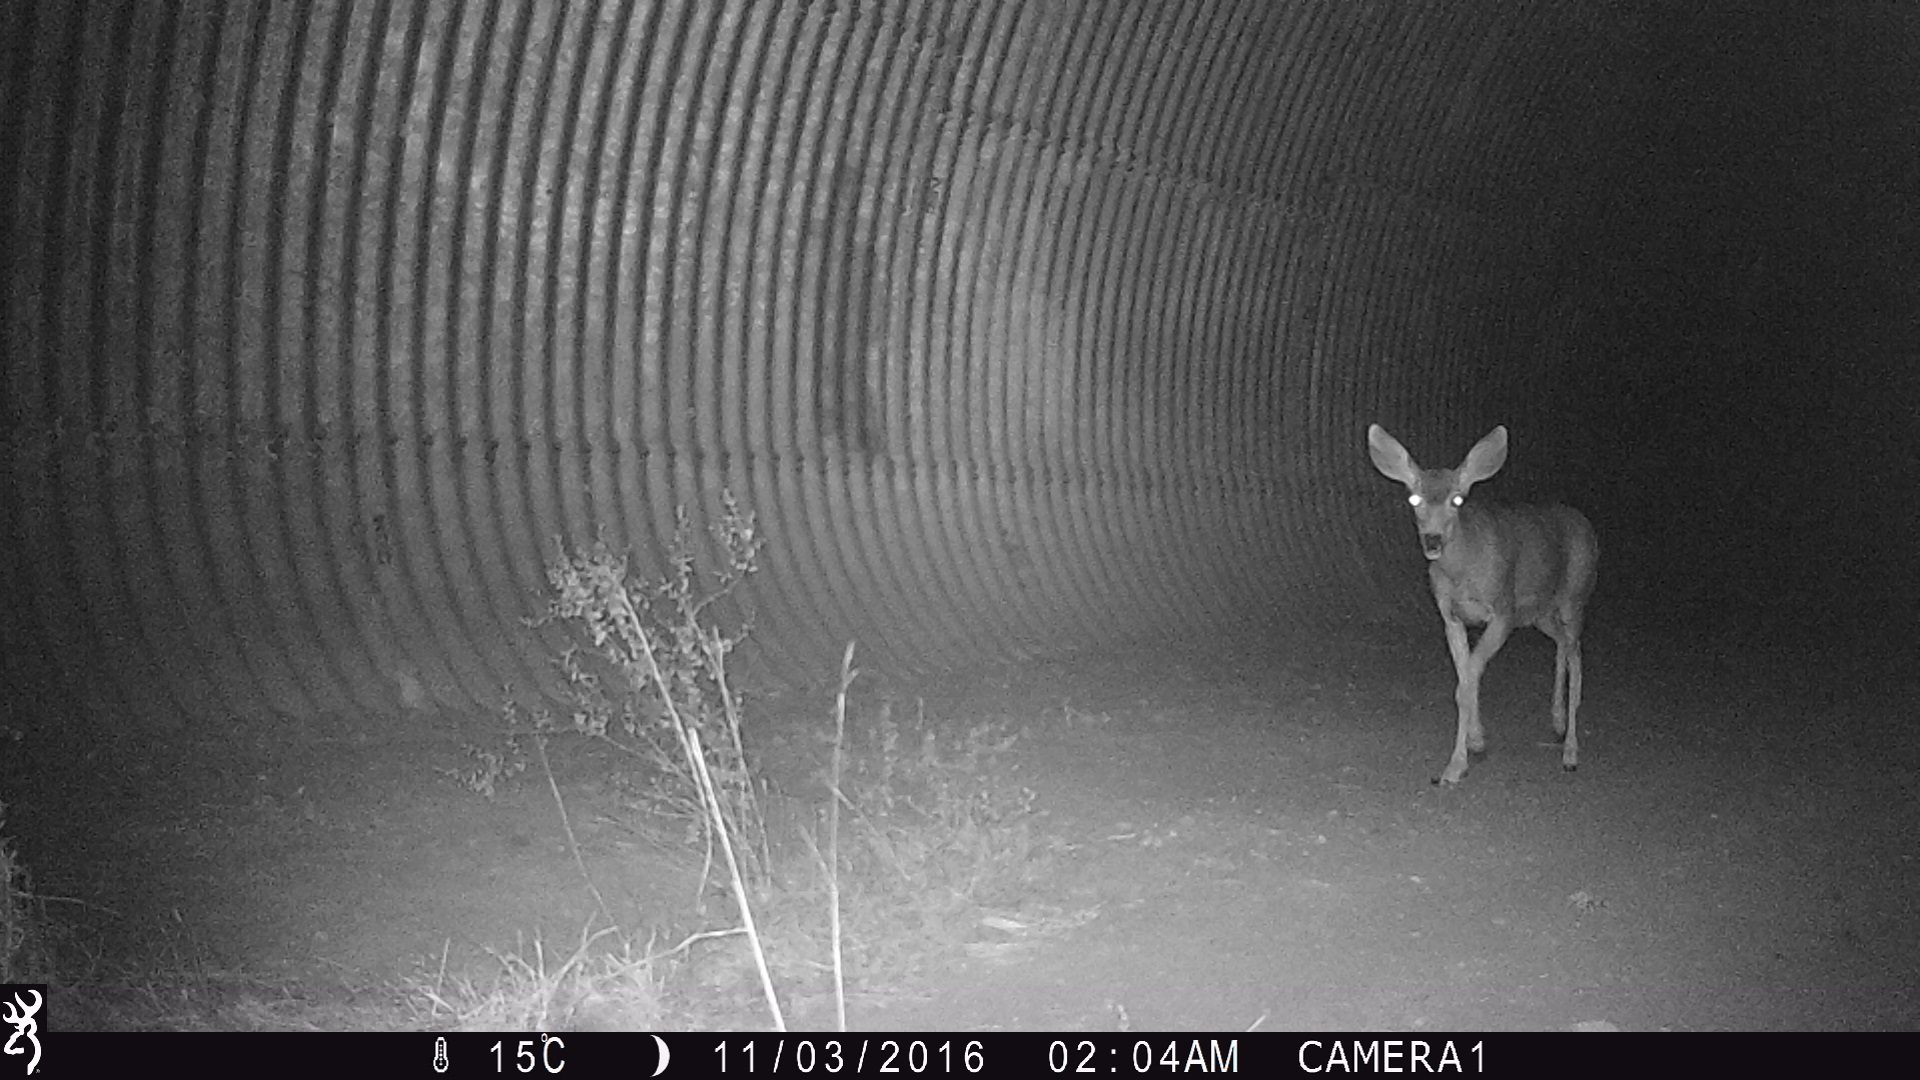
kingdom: Animalia
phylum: Chordata
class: Mammalia
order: Artiodactyla
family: Cervidae
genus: Odocoileus
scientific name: Odocoileus hemionus
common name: Mule deer
